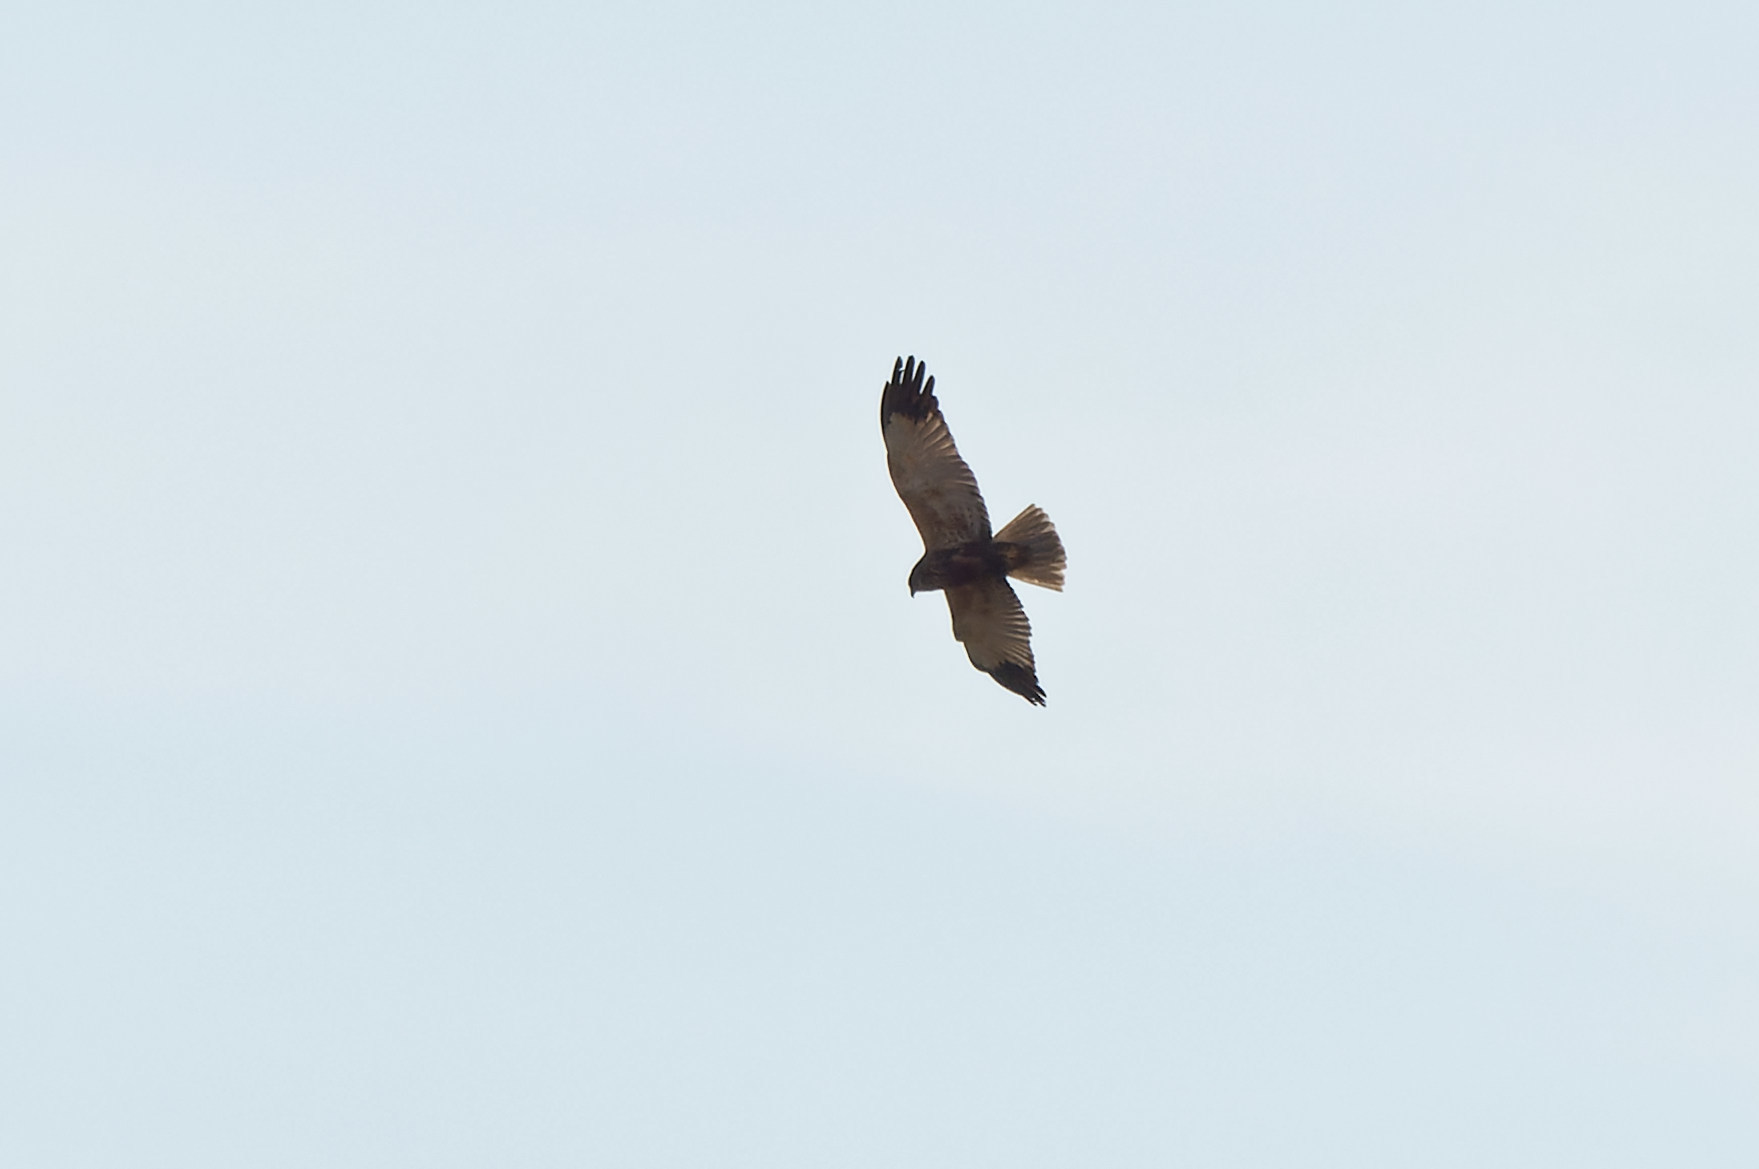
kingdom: Animalia
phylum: Chordata
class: Aves
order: Accipitriformes
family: Accipitridae
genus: Circus
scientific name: Circus aeruginosus
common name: Western marsh harrier
